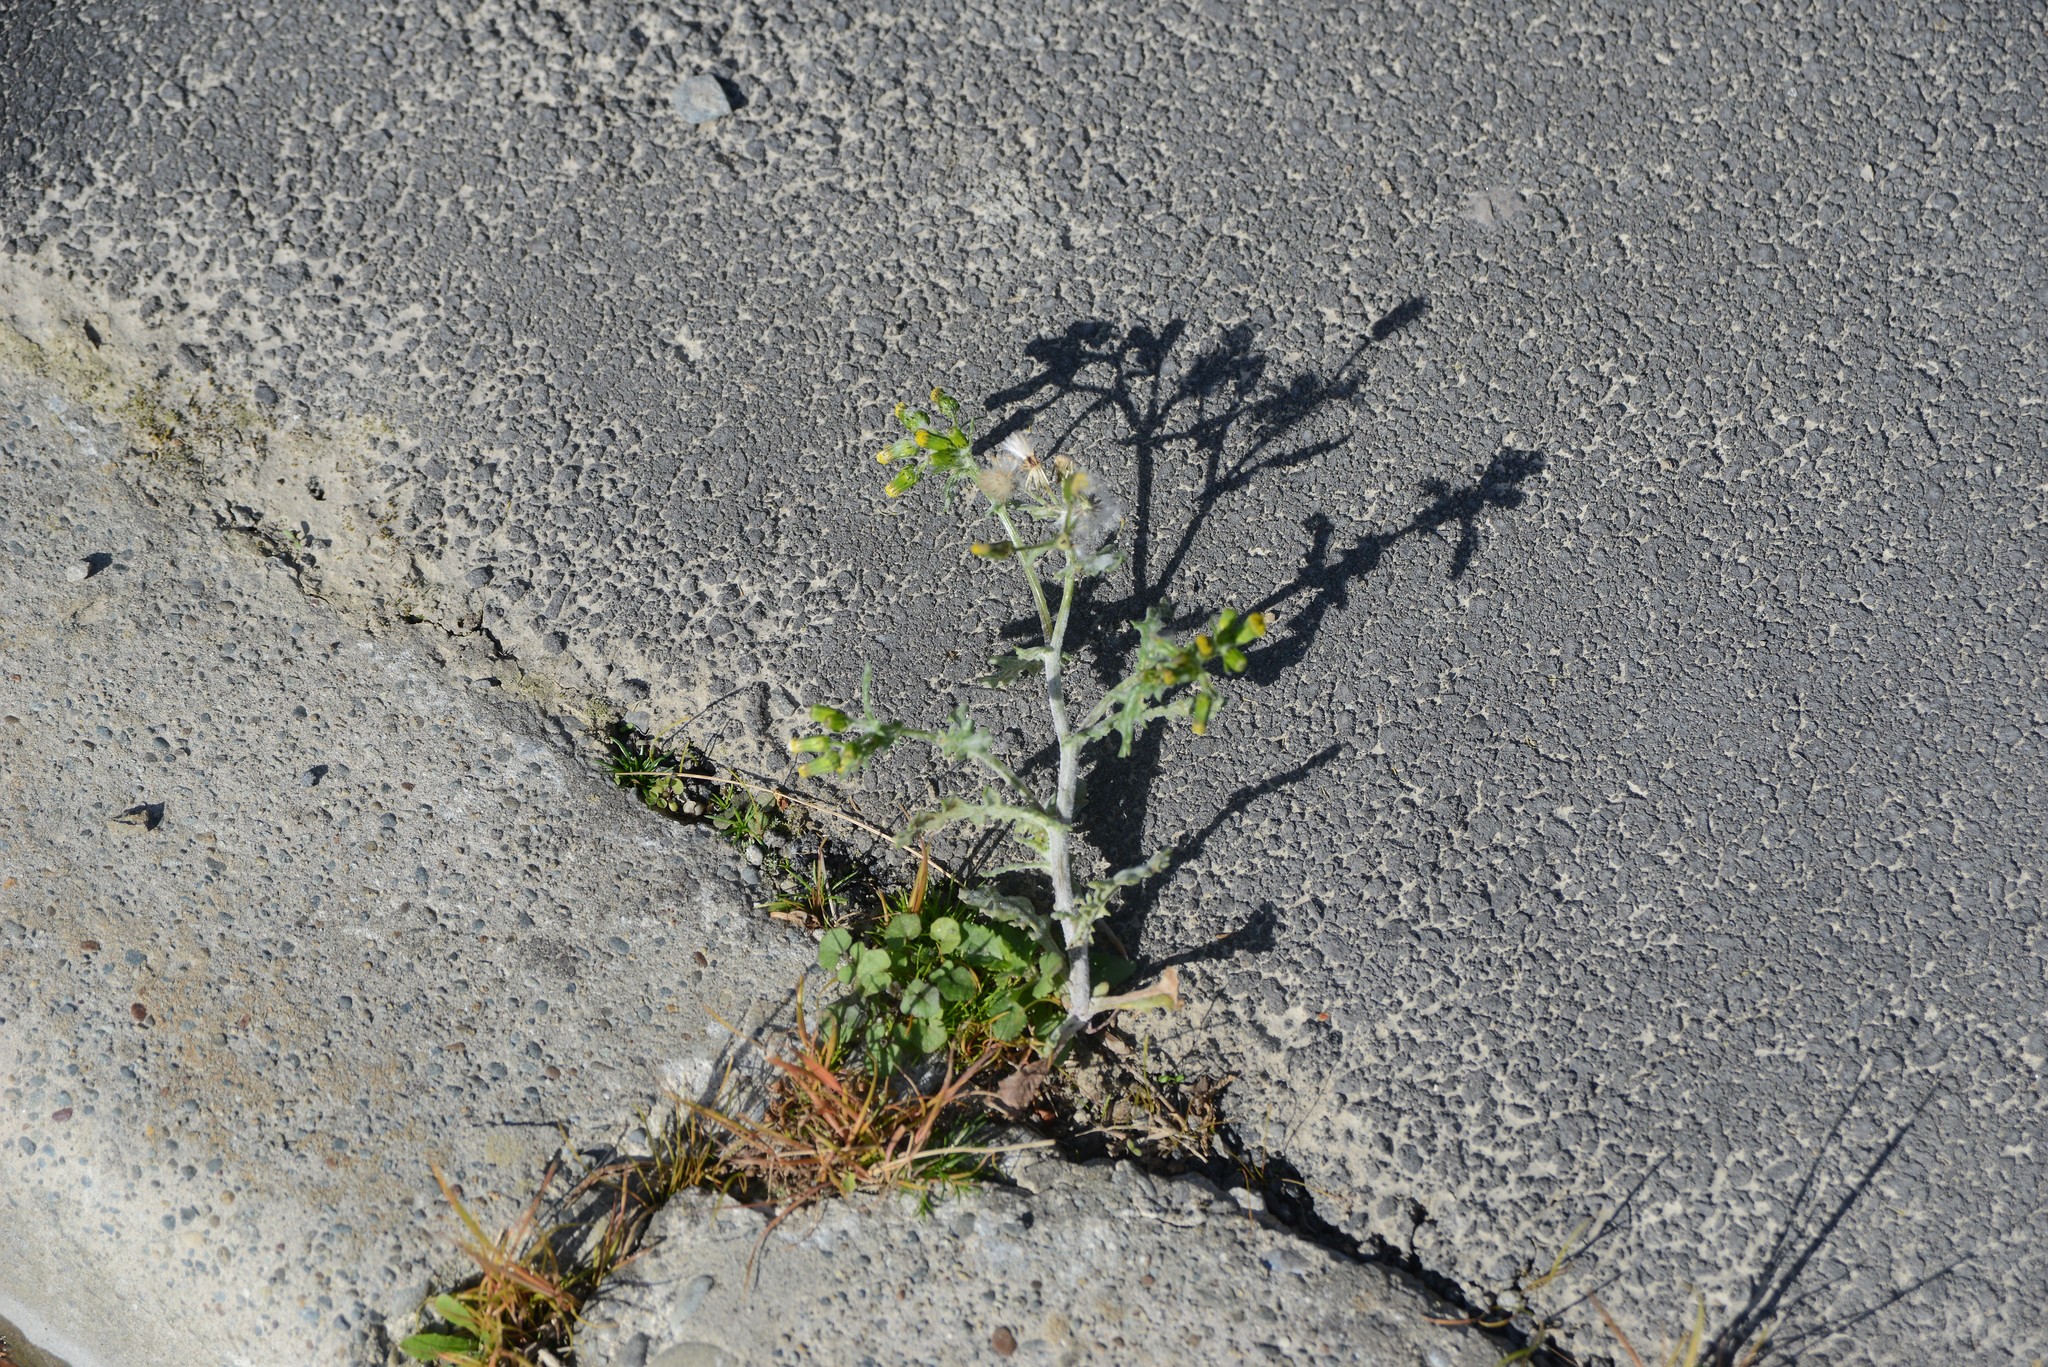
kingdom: Plantae
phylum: Tracheophyta
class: Magnoliopsida
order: Asterales
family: Asteraceae
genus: Senecio
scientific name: Senecio vulgaris
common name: Old-man-in-the-spring
